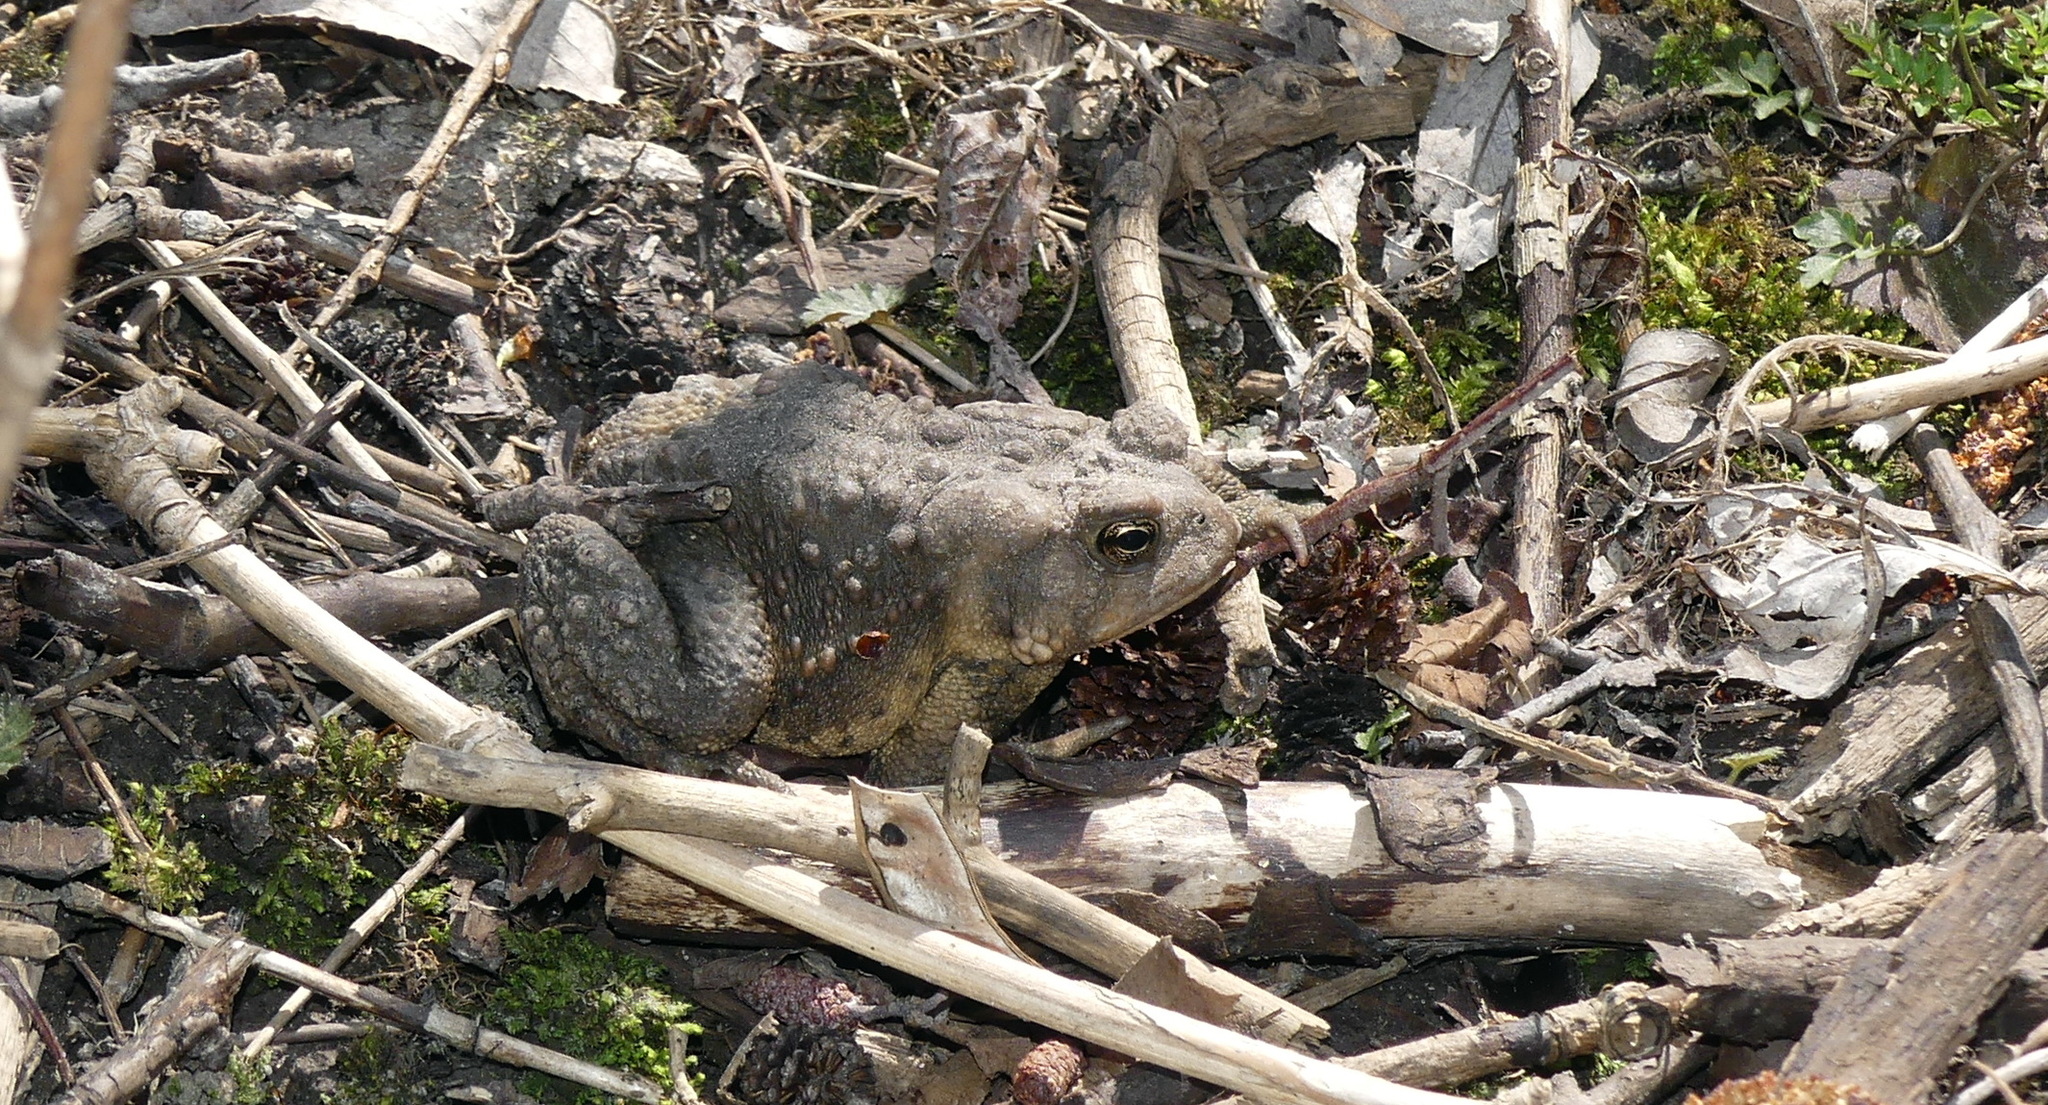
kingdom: Animalia
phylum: Chordata
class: Amphibia
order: Anura
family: Bufonidae
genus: Anaxyrus
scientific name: Anaxyrus americanus
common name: American toad
